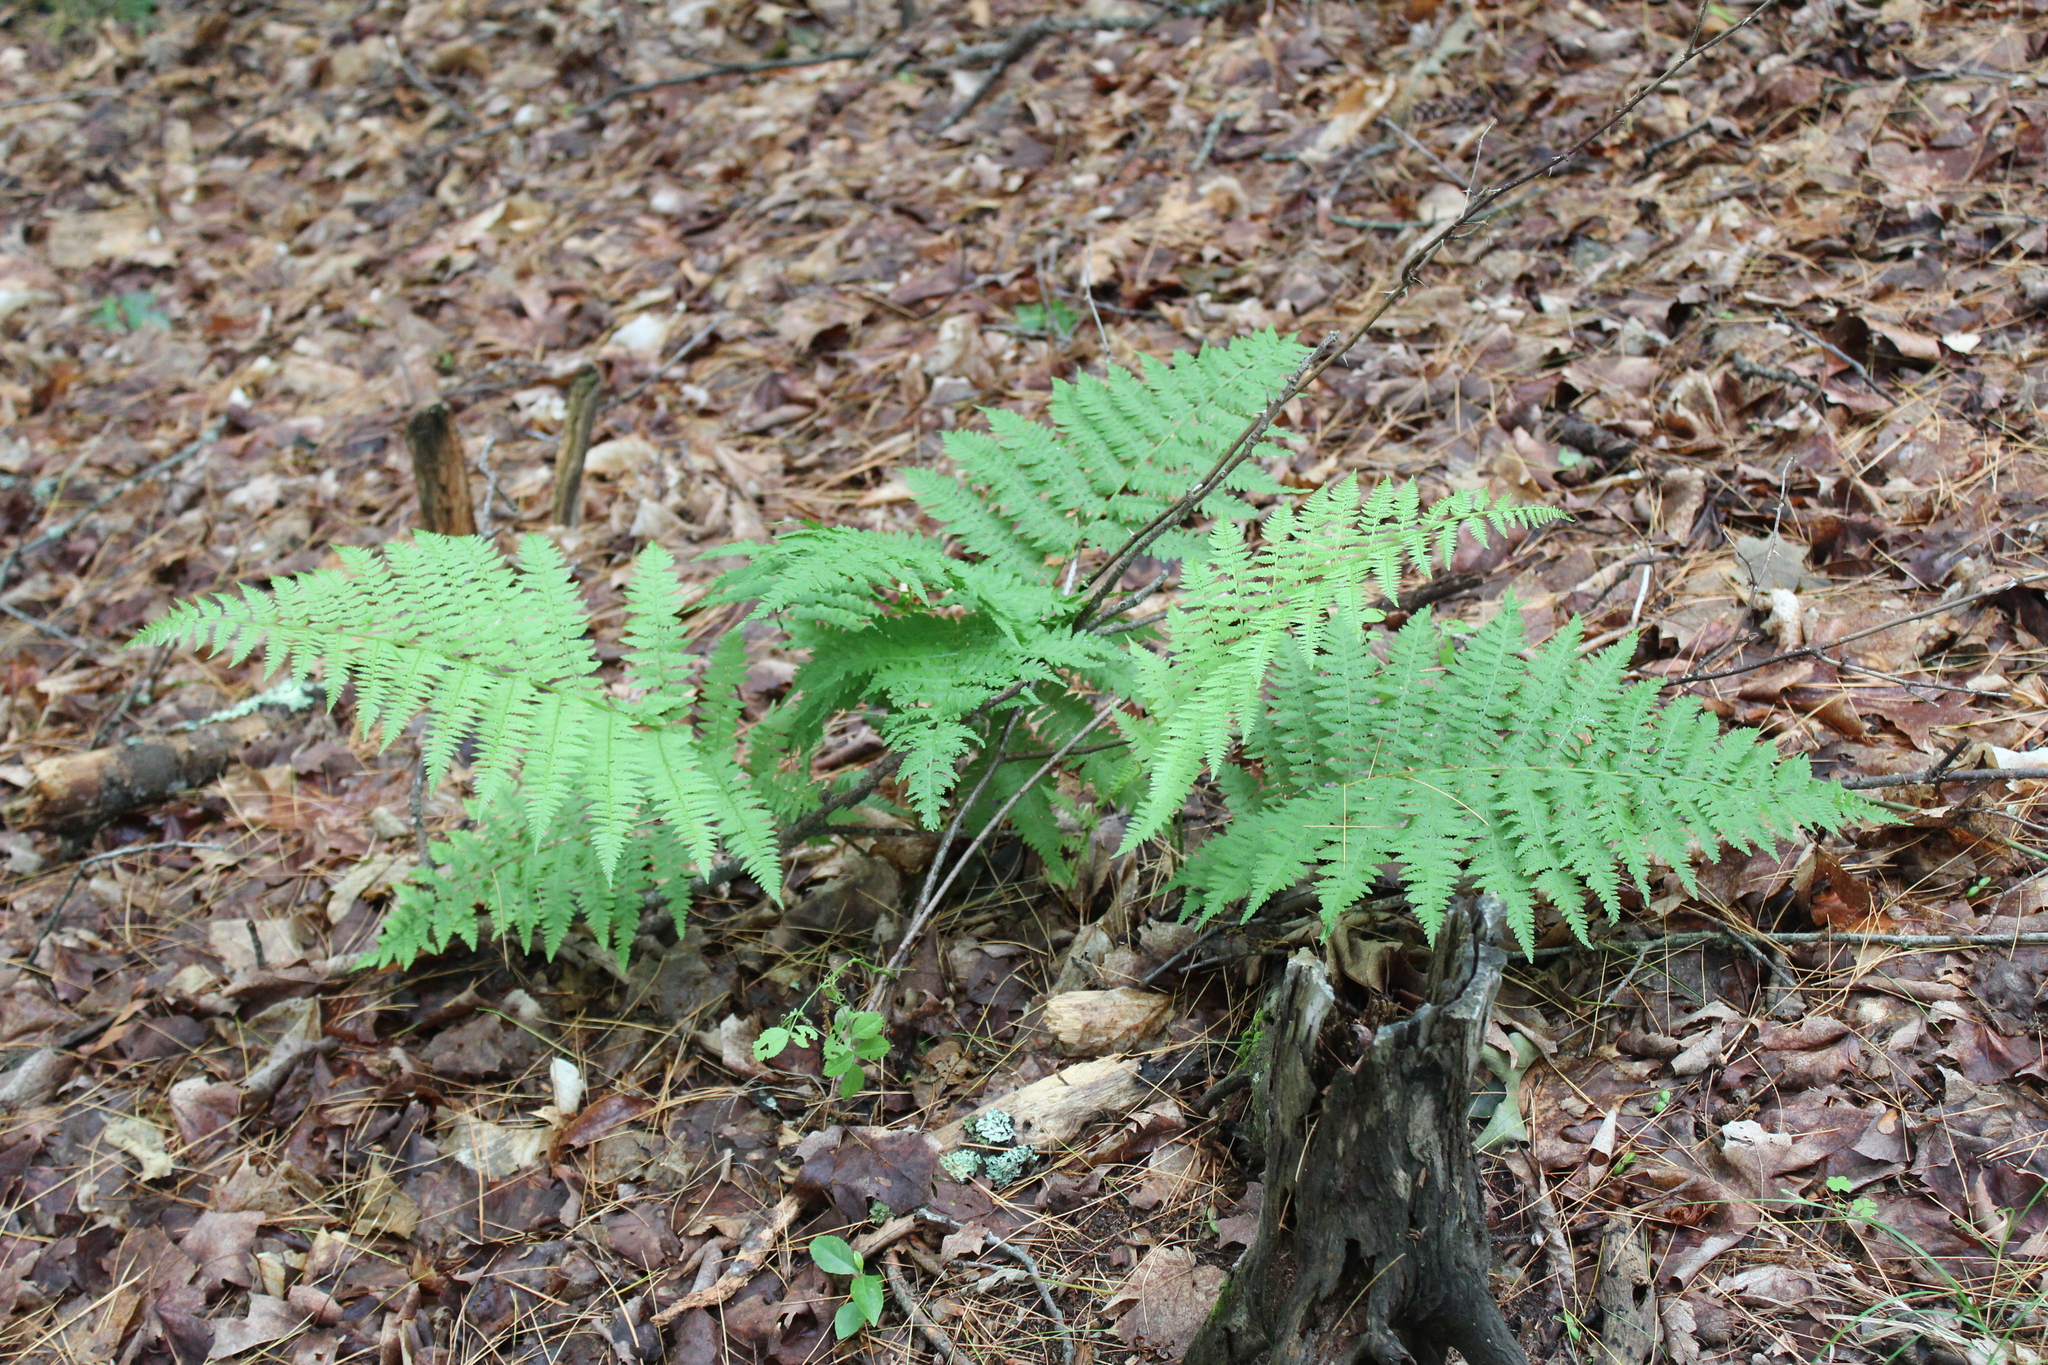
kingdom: Plantae
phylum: Tracheophyta
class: Polypodiopsida
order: Polypodiales
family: Athyriaceae
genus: Athyrium
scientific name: Athyrium angustum
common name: Northern lady fern
